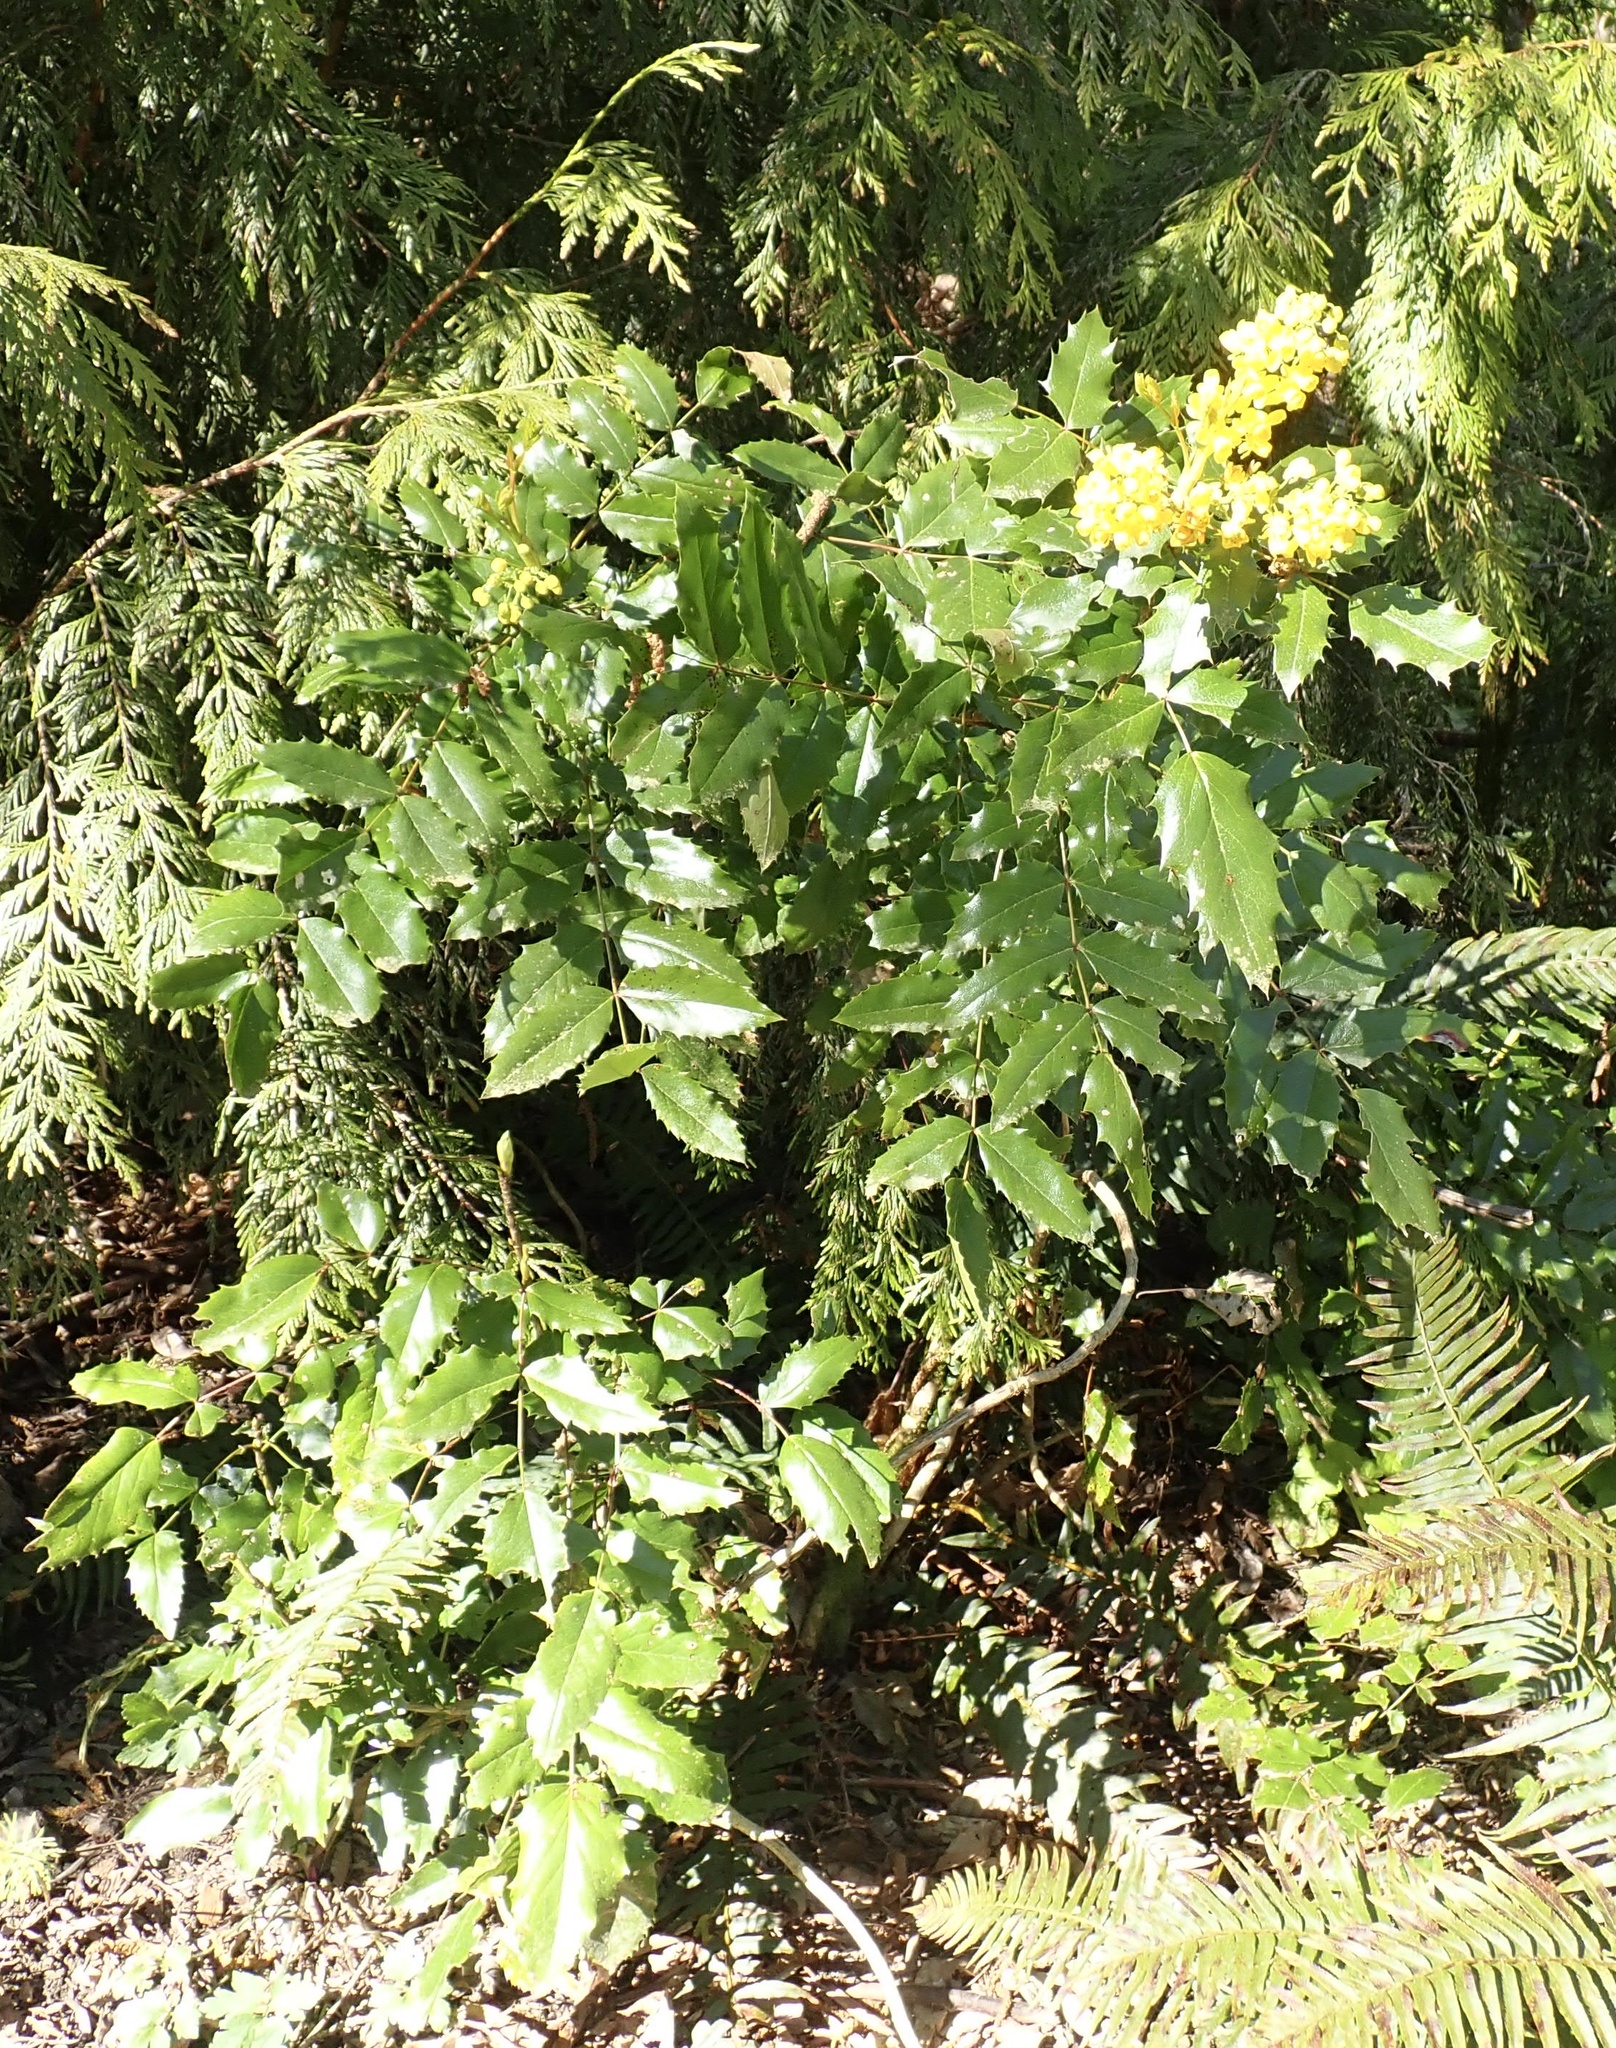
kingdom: Plantae
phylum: Tracheophyta
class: Magnoliopsida
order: Ranunculales
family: Berberidaceae
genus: Mahonia
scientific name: Mahonia aquifolium
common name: Oregon-grape
